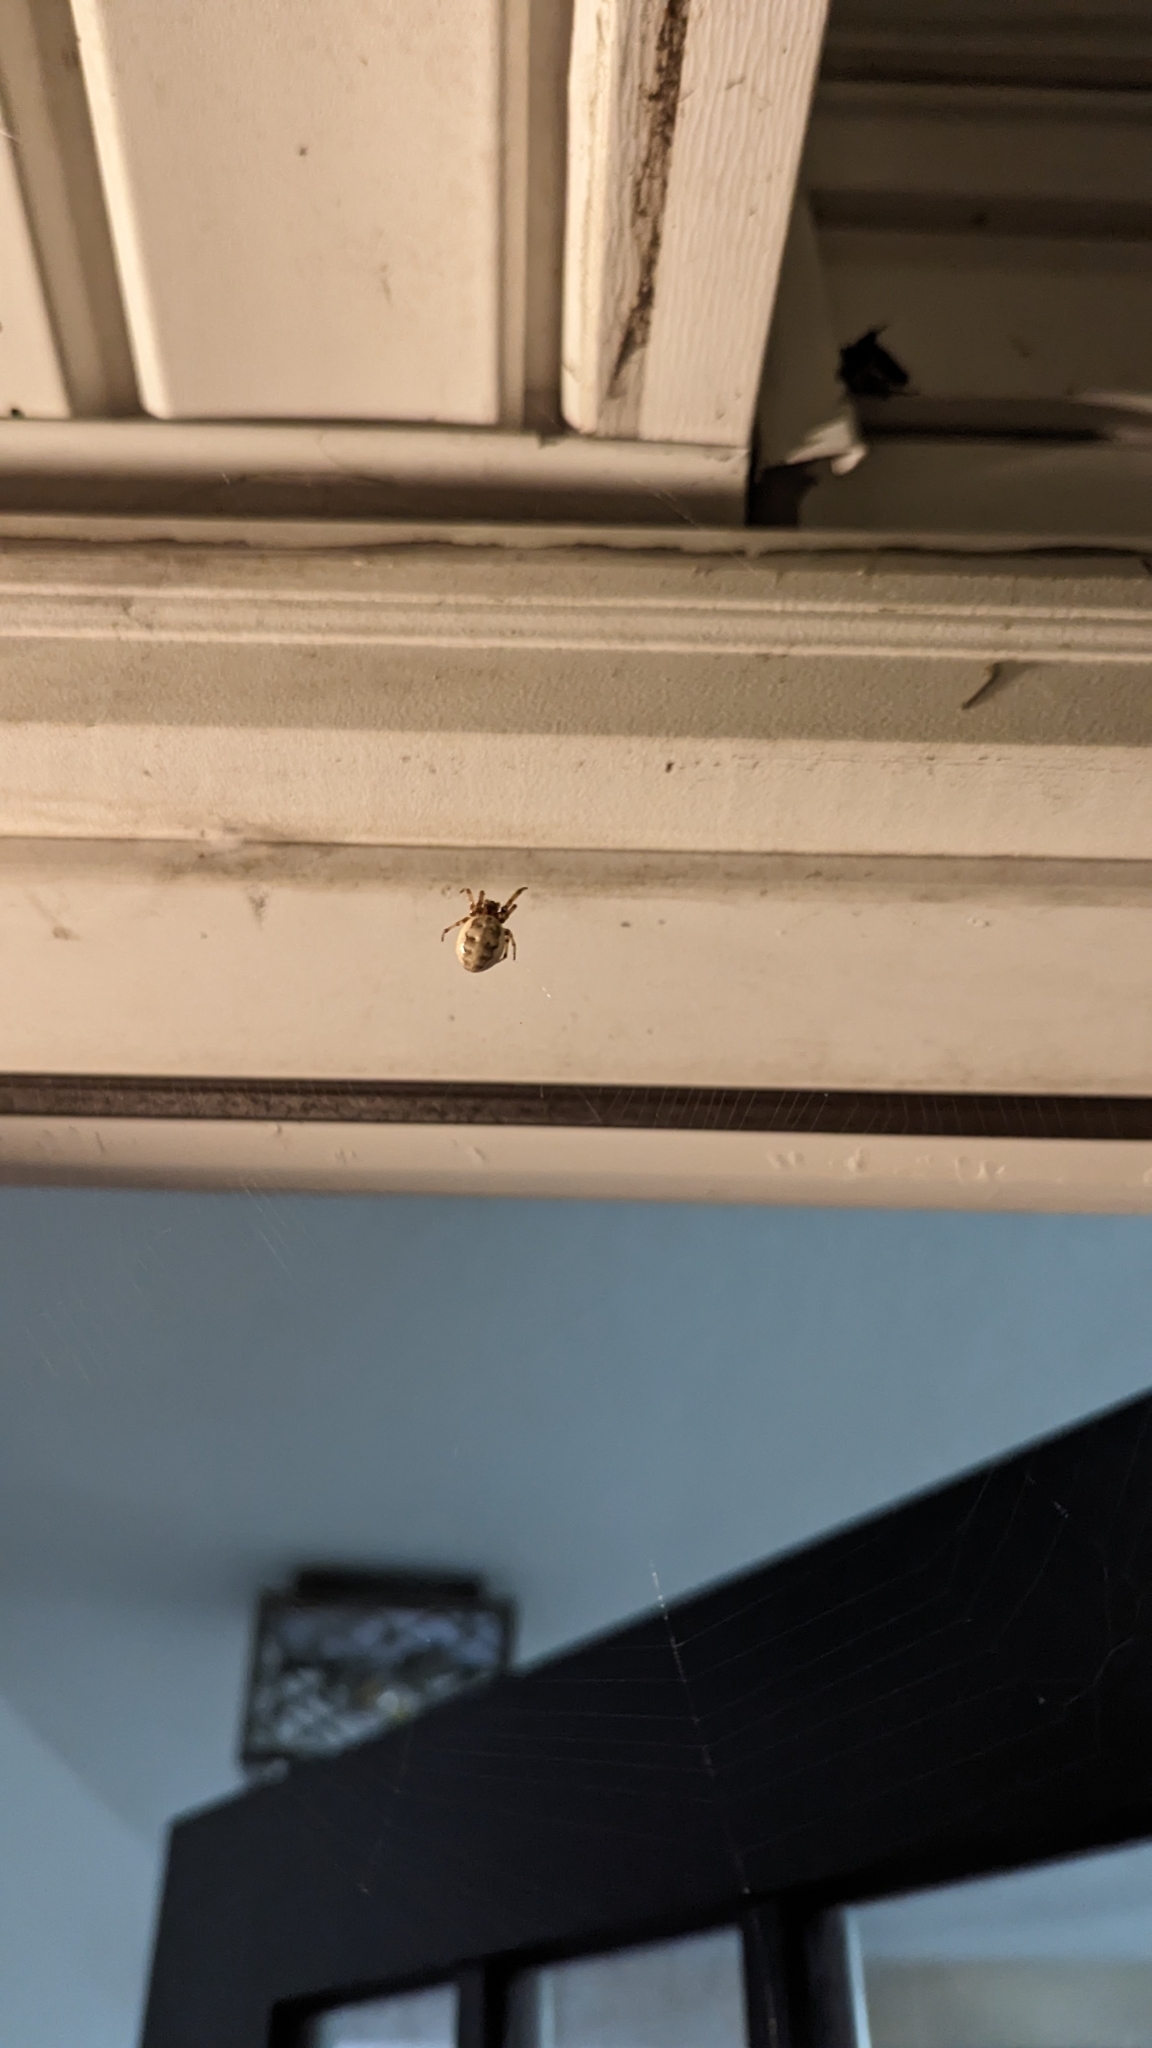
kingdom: Animalia
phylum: Arthropoda
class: Arachnida
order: Araneae
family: Araneidae
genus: Larinioides
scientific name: Larinioides cornutus
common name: Furrow orbweaver
